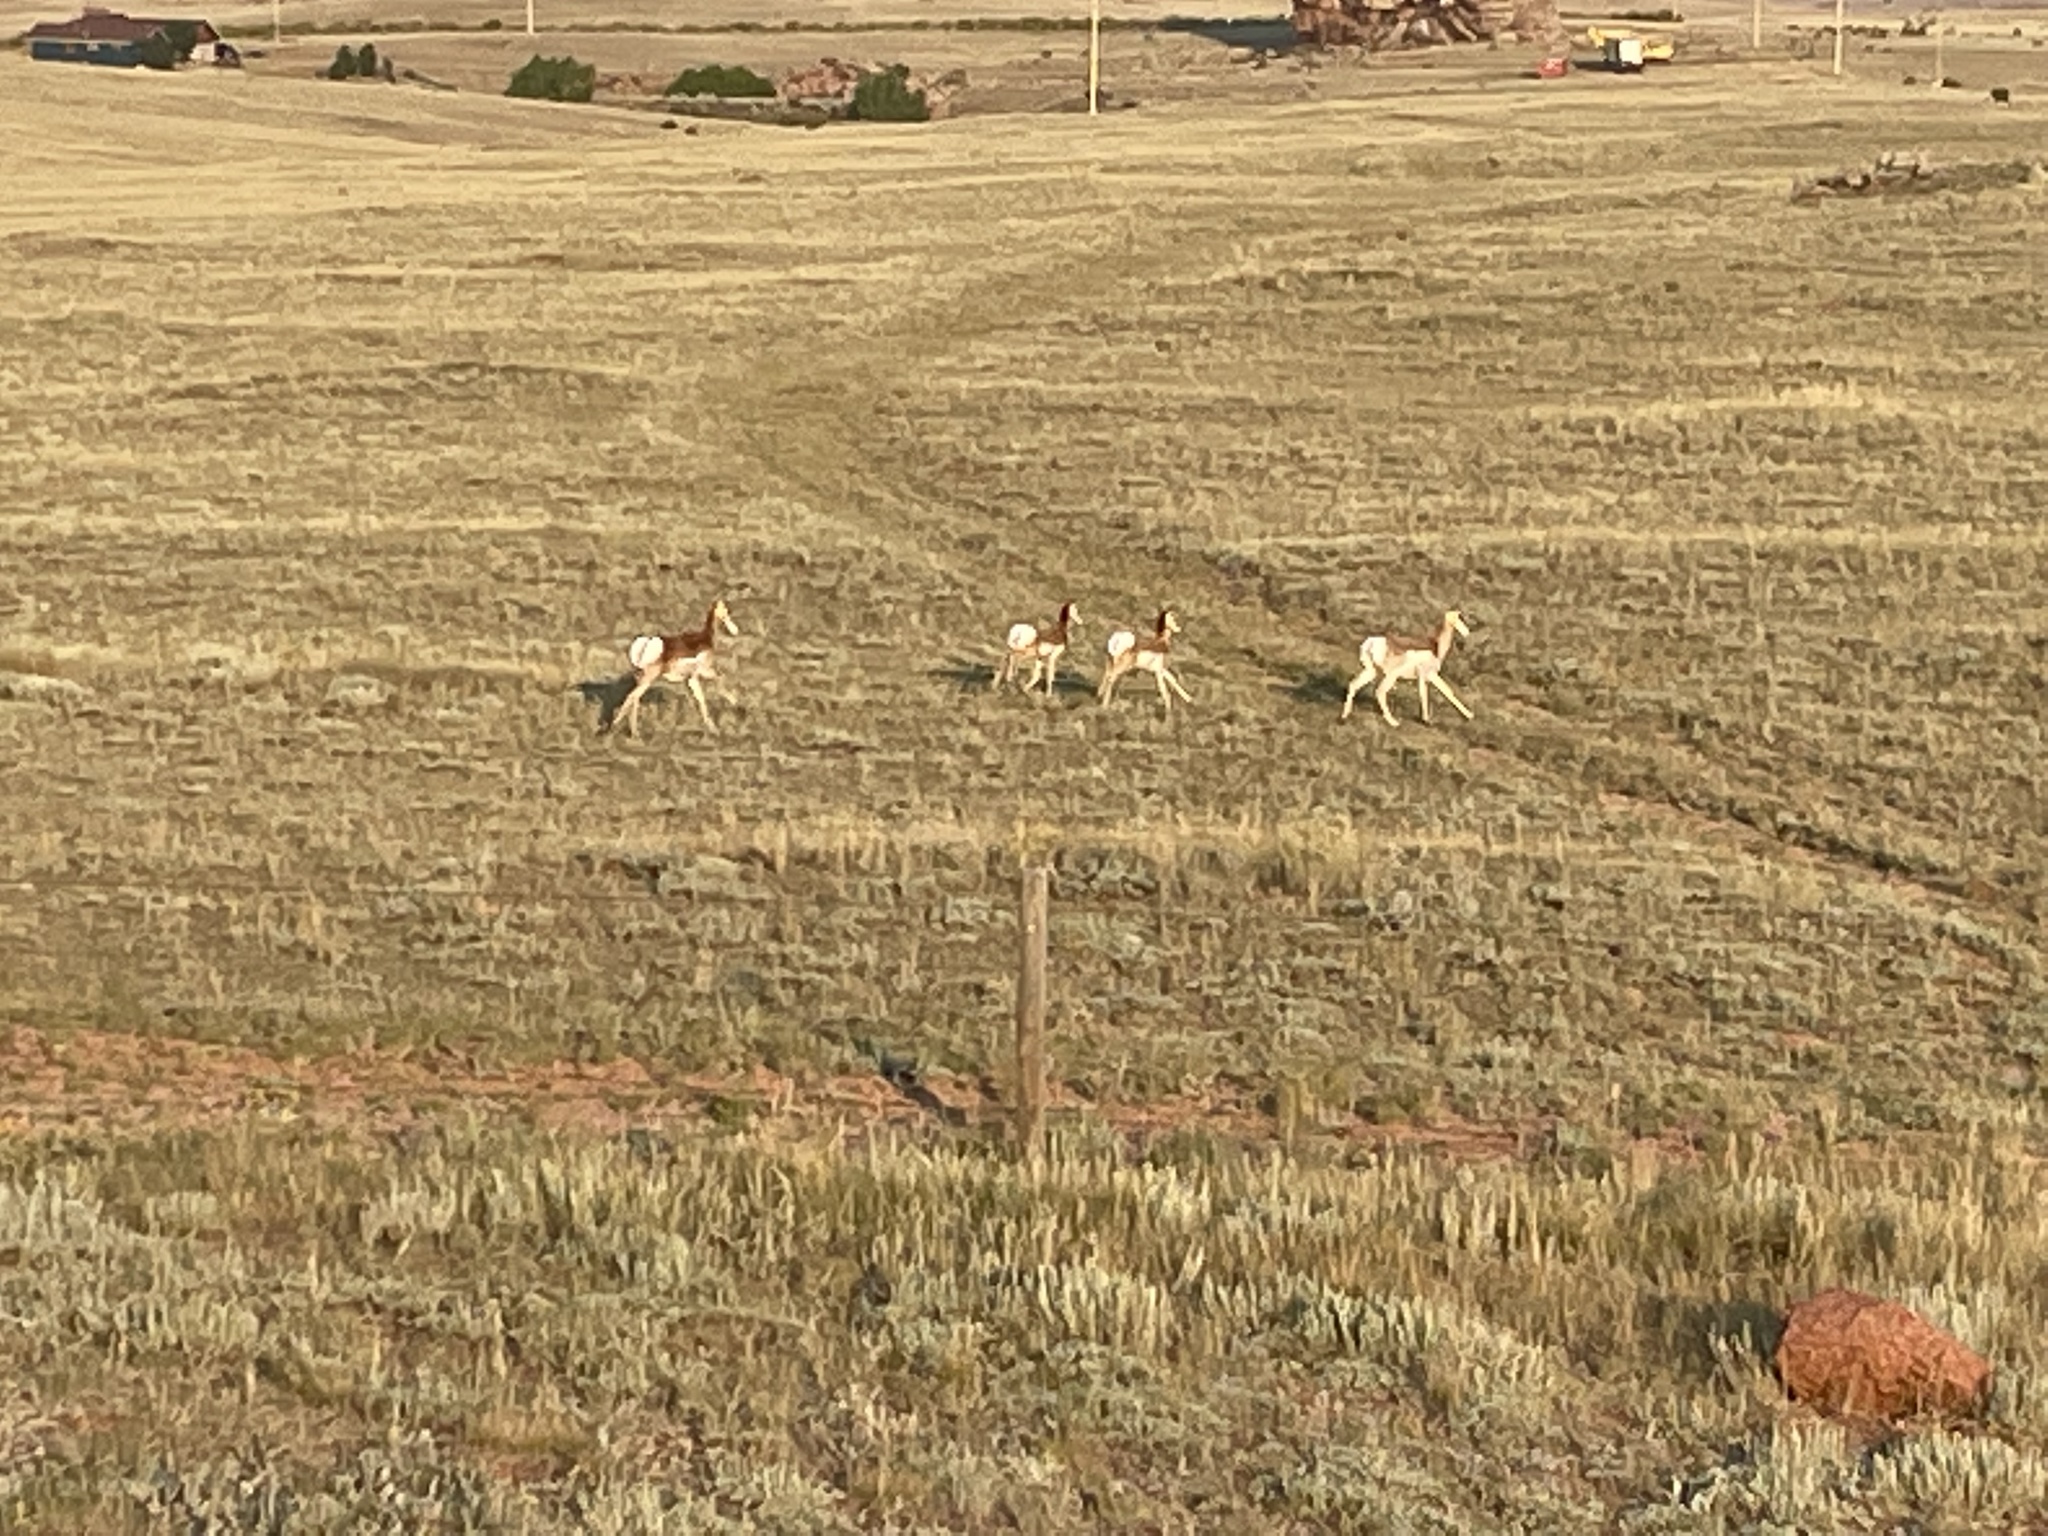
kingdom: Animalia
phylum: Chordata
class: Mammalia
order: Artiodactyla
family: Antilocapridae
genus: Antilocapra
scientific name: Antilocapra americana
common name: Pronghorn
